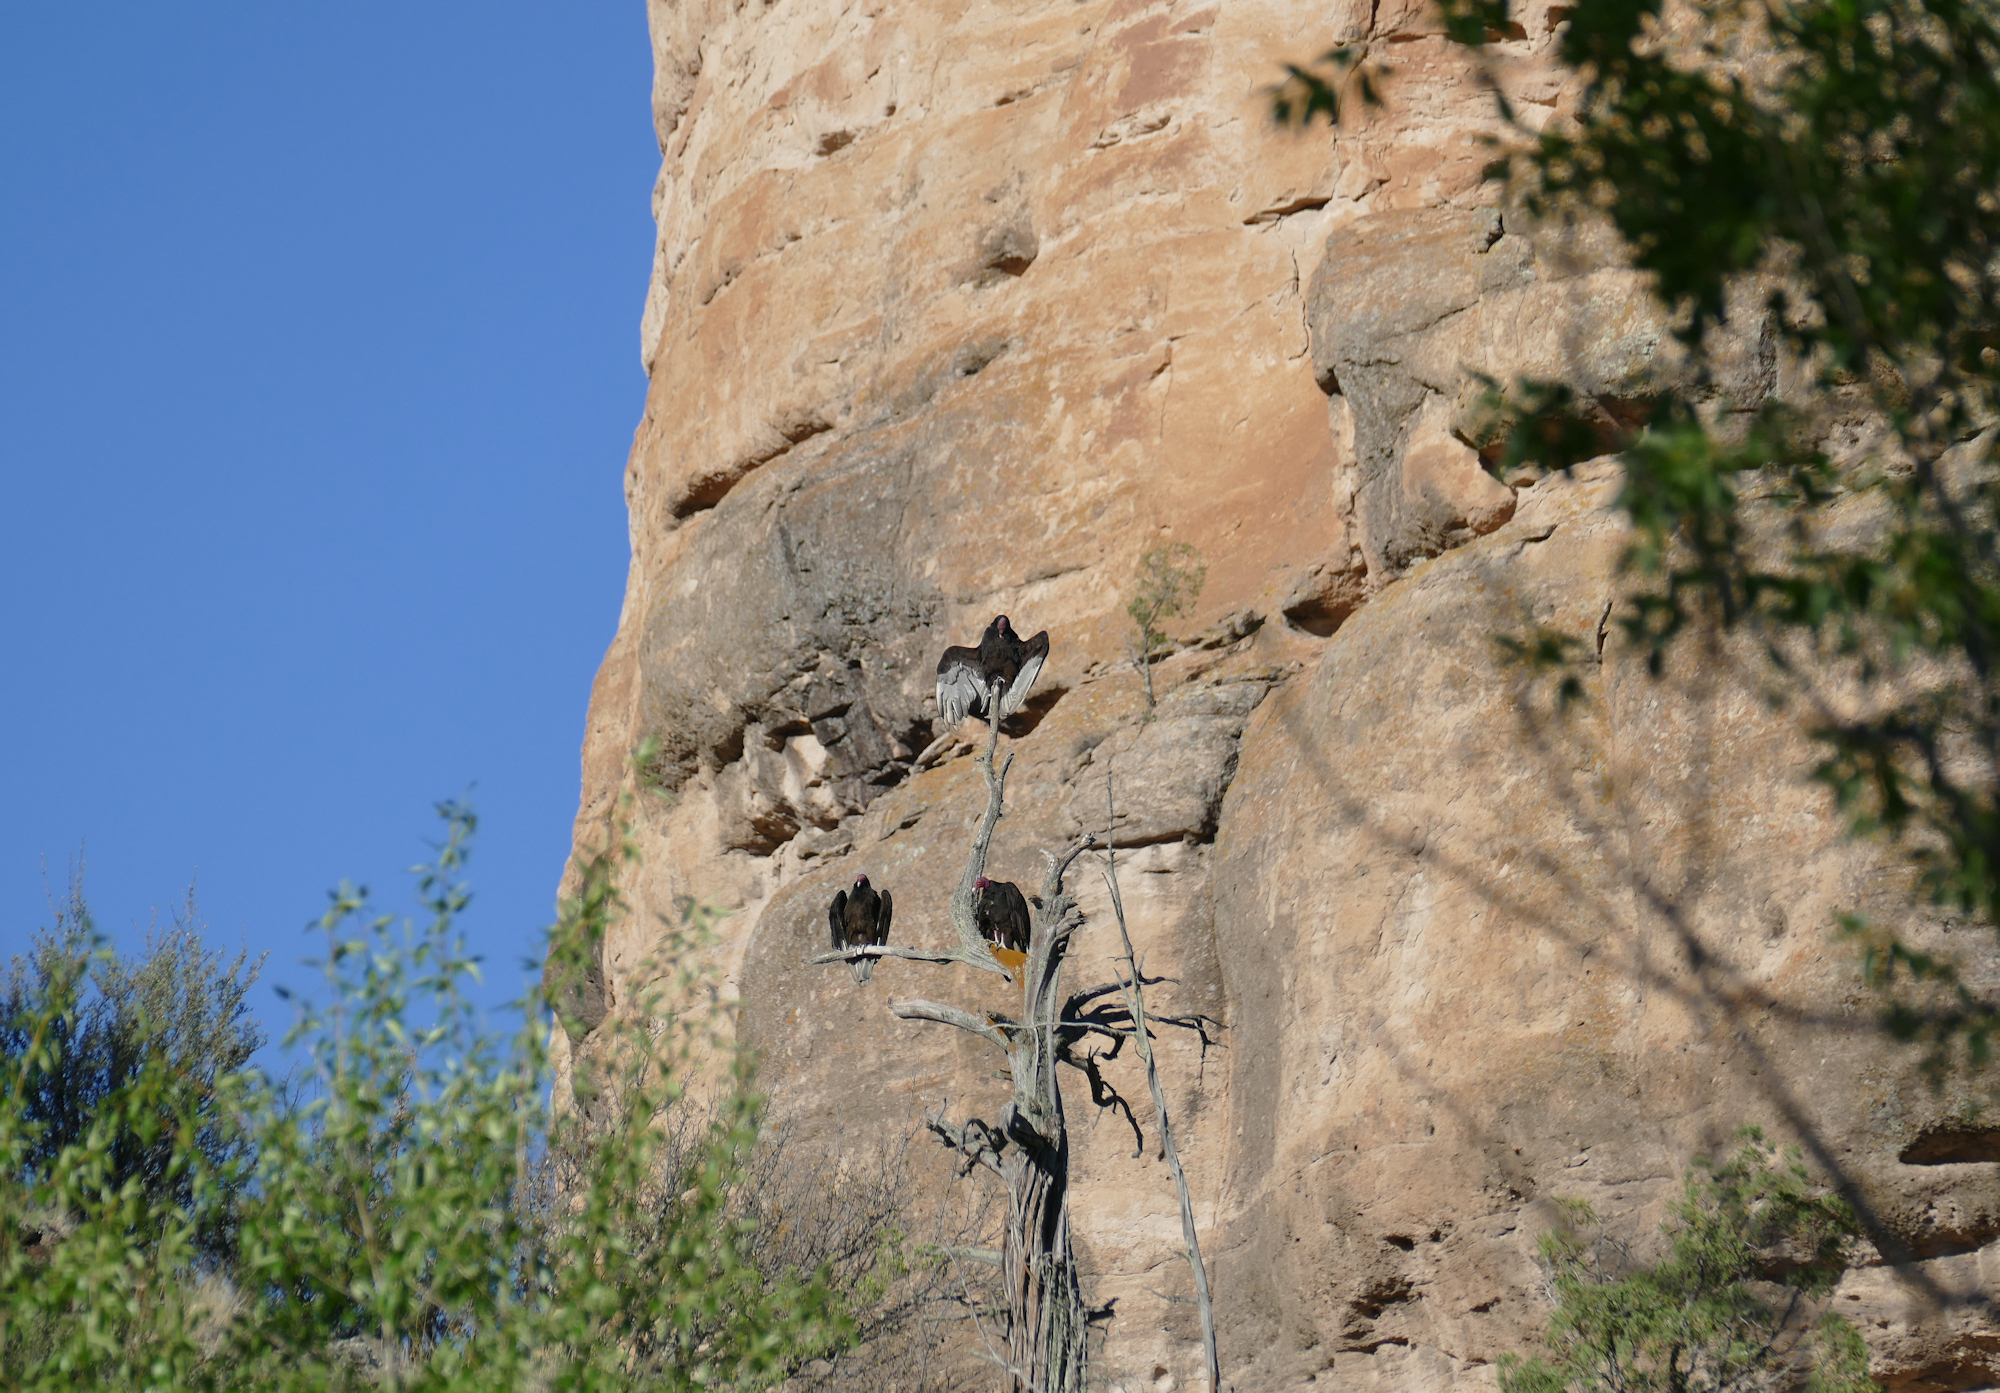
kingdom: Animalia
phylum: Chordata
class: Aves
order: Accipitriformes
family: Cathartidae
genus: Cathartes
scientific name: Cathartes aura
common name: Turkey vulture
